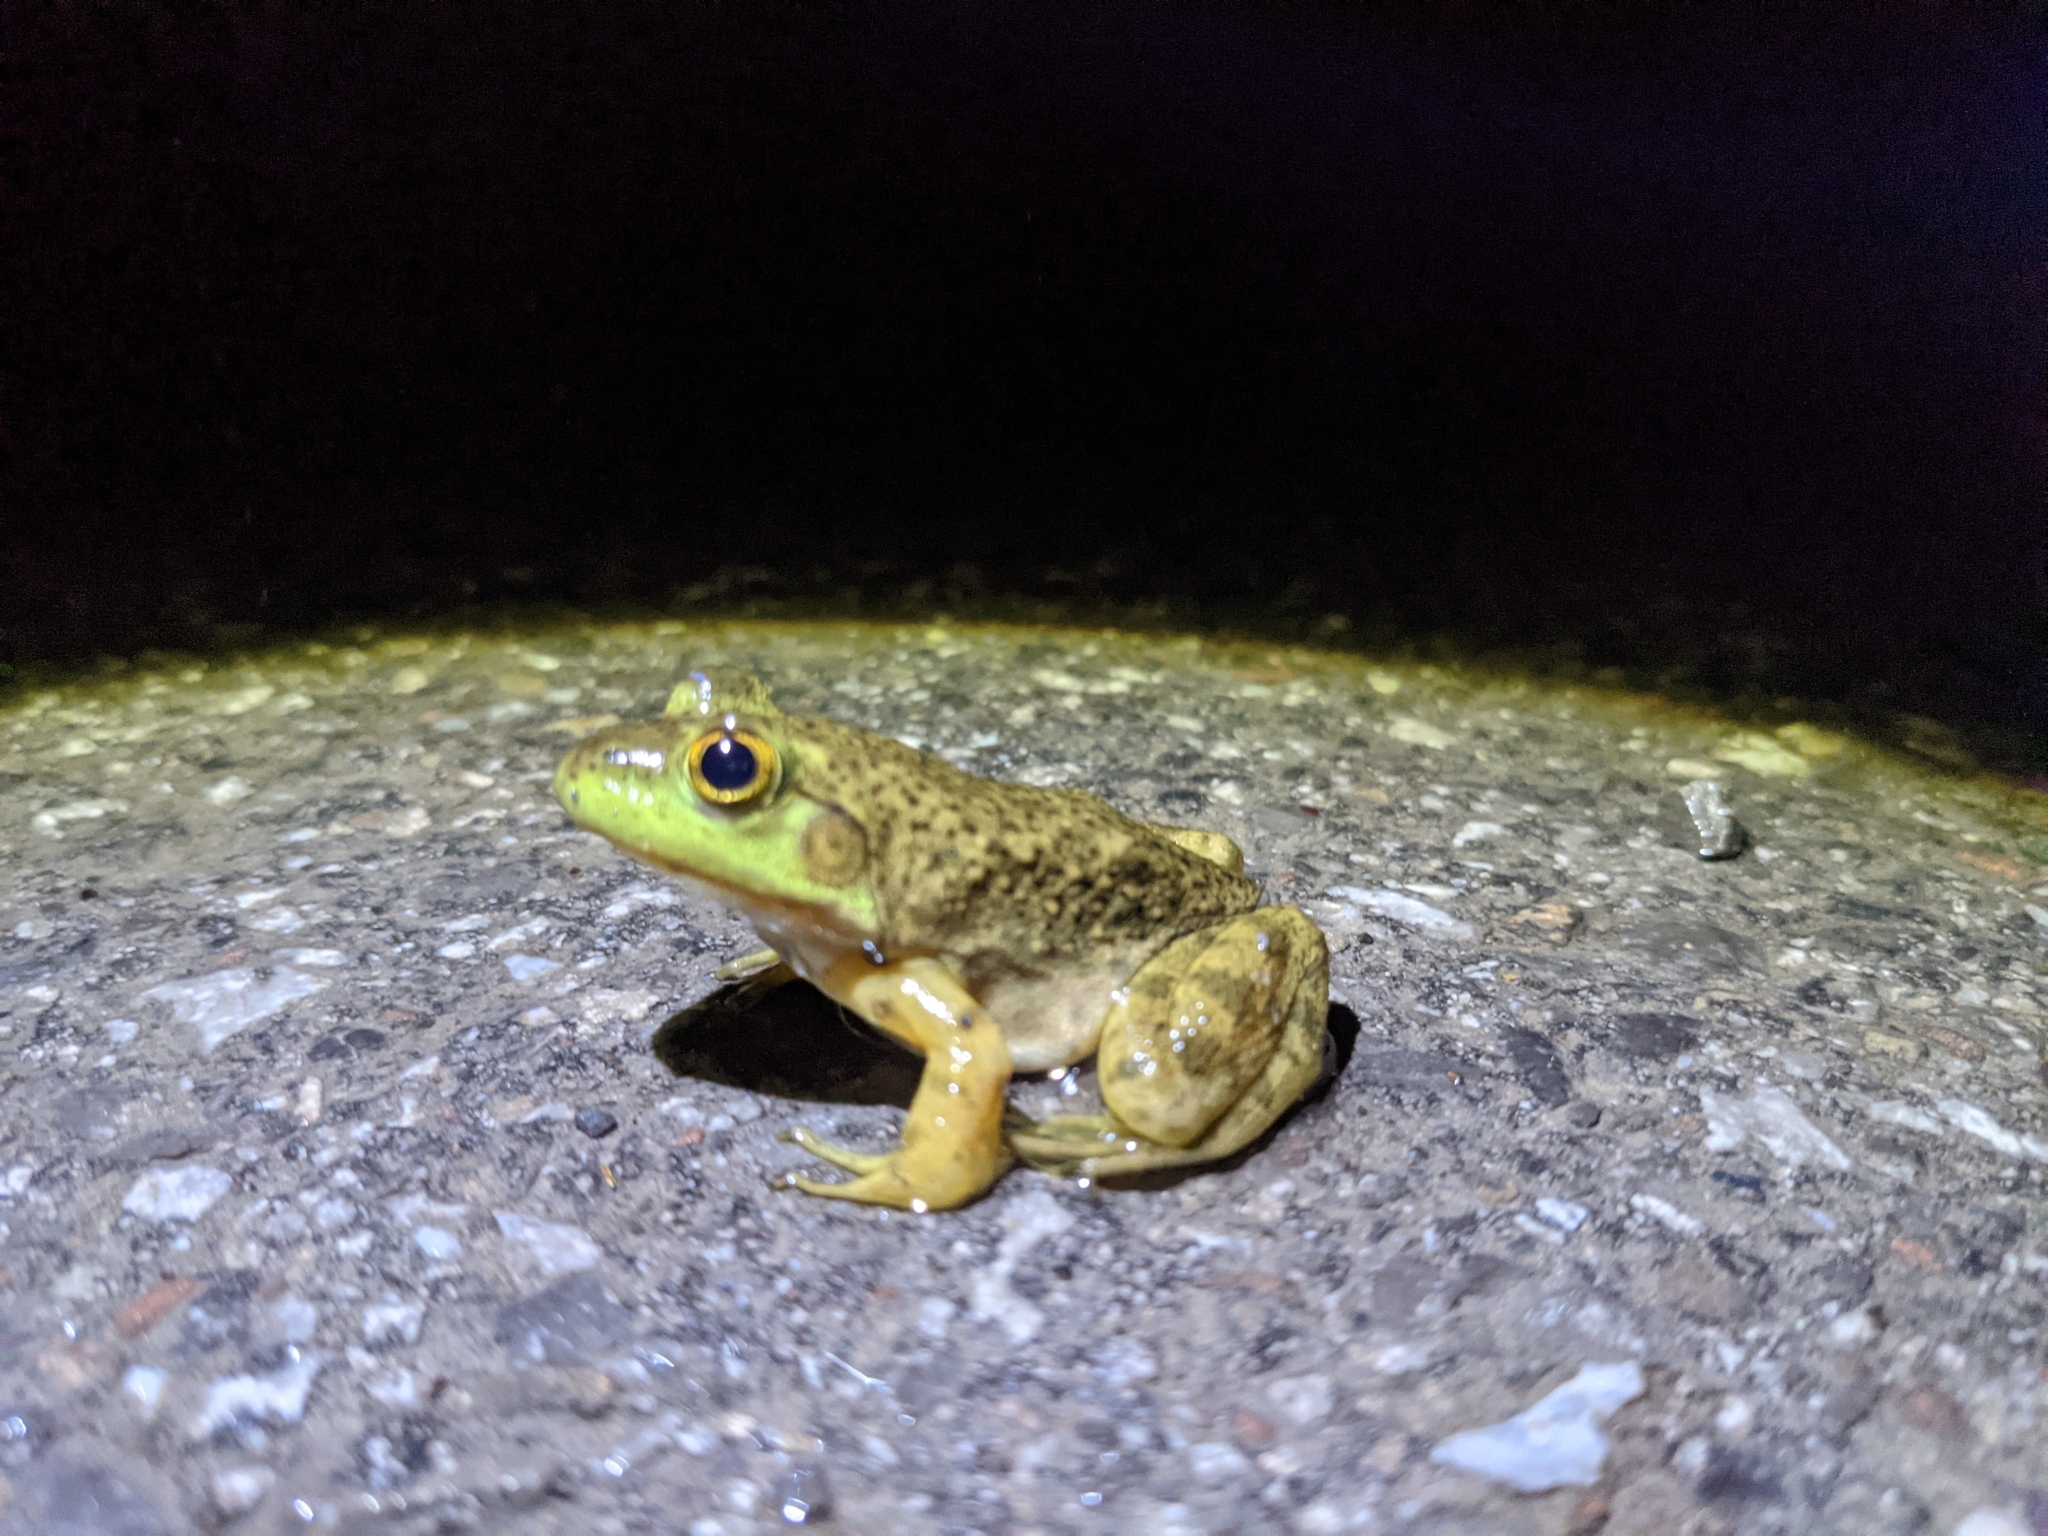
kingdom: Animalia
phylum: Chordata
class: Amphibia
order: Anura
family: Ranidae
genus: Lithobates
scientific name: Lithobates catesbeianus
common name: American bullfrog
